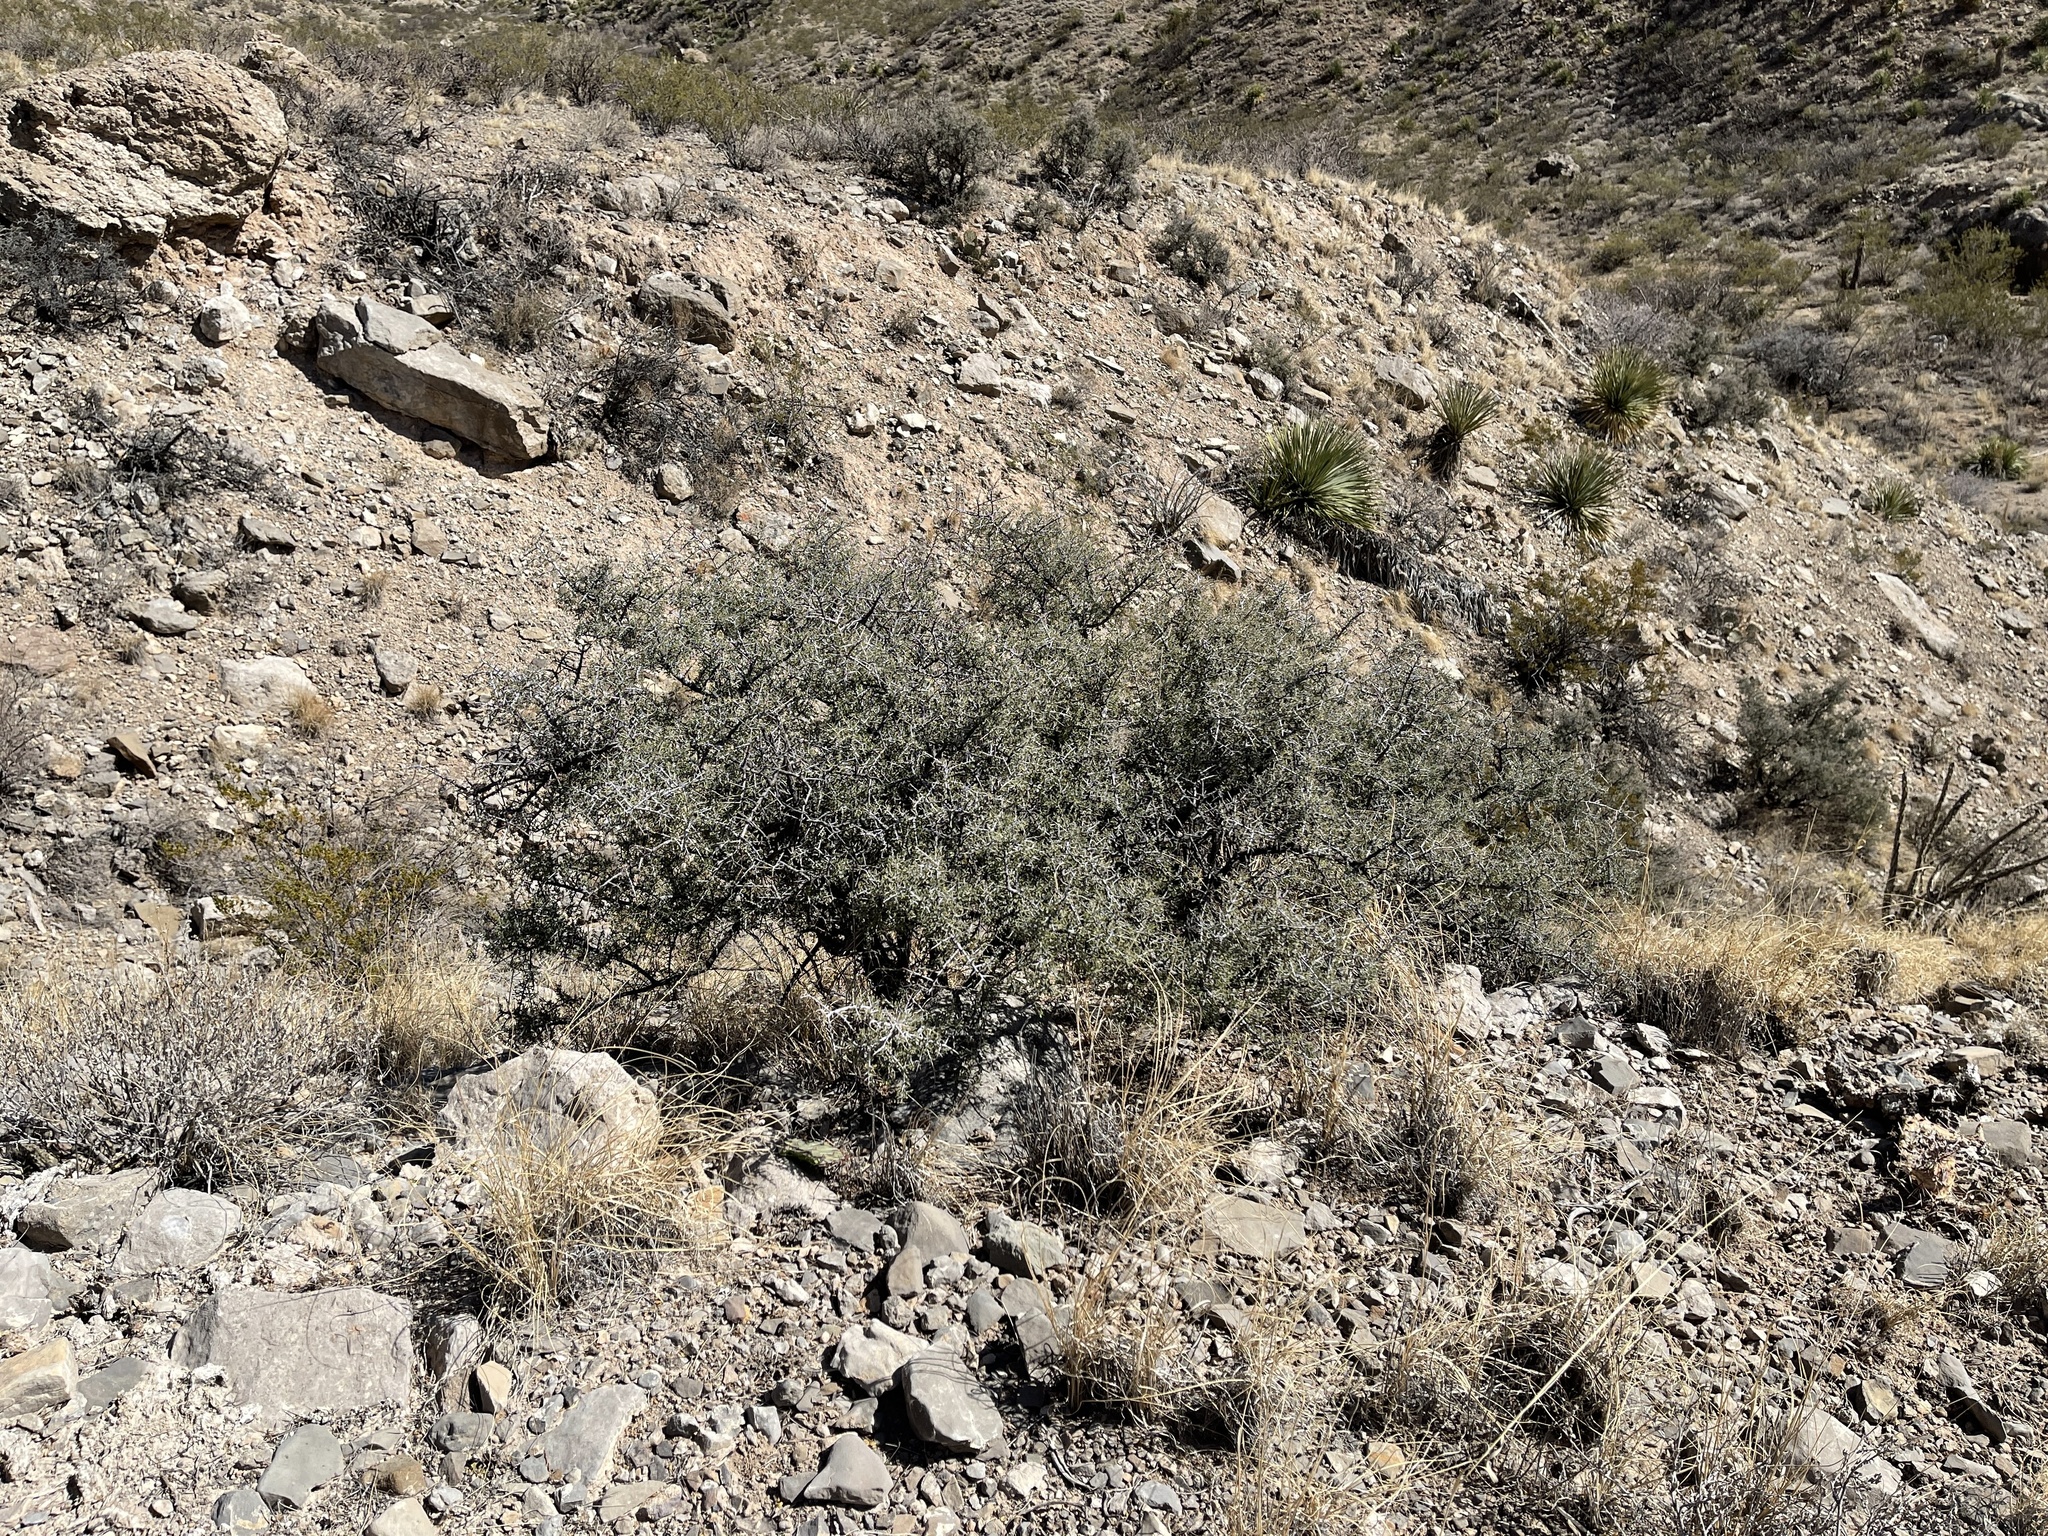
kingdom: Plantae
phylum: Tracheophyta
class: Magnoliopsida
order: Rosales
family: Rhamnaceae
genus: Condalia
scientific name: Condalia warnockii
